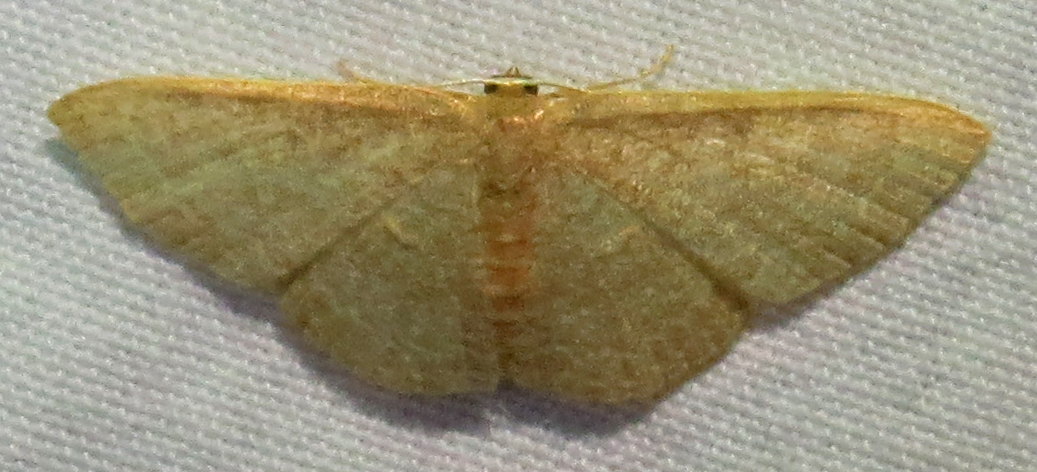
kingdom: Animalia
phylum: Arthropoda
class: Insecta
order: Lepidoptera
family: Geometridae
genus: Pleuroprucha
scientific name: Pleuroprucha insulsaria
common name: Common tan wave
